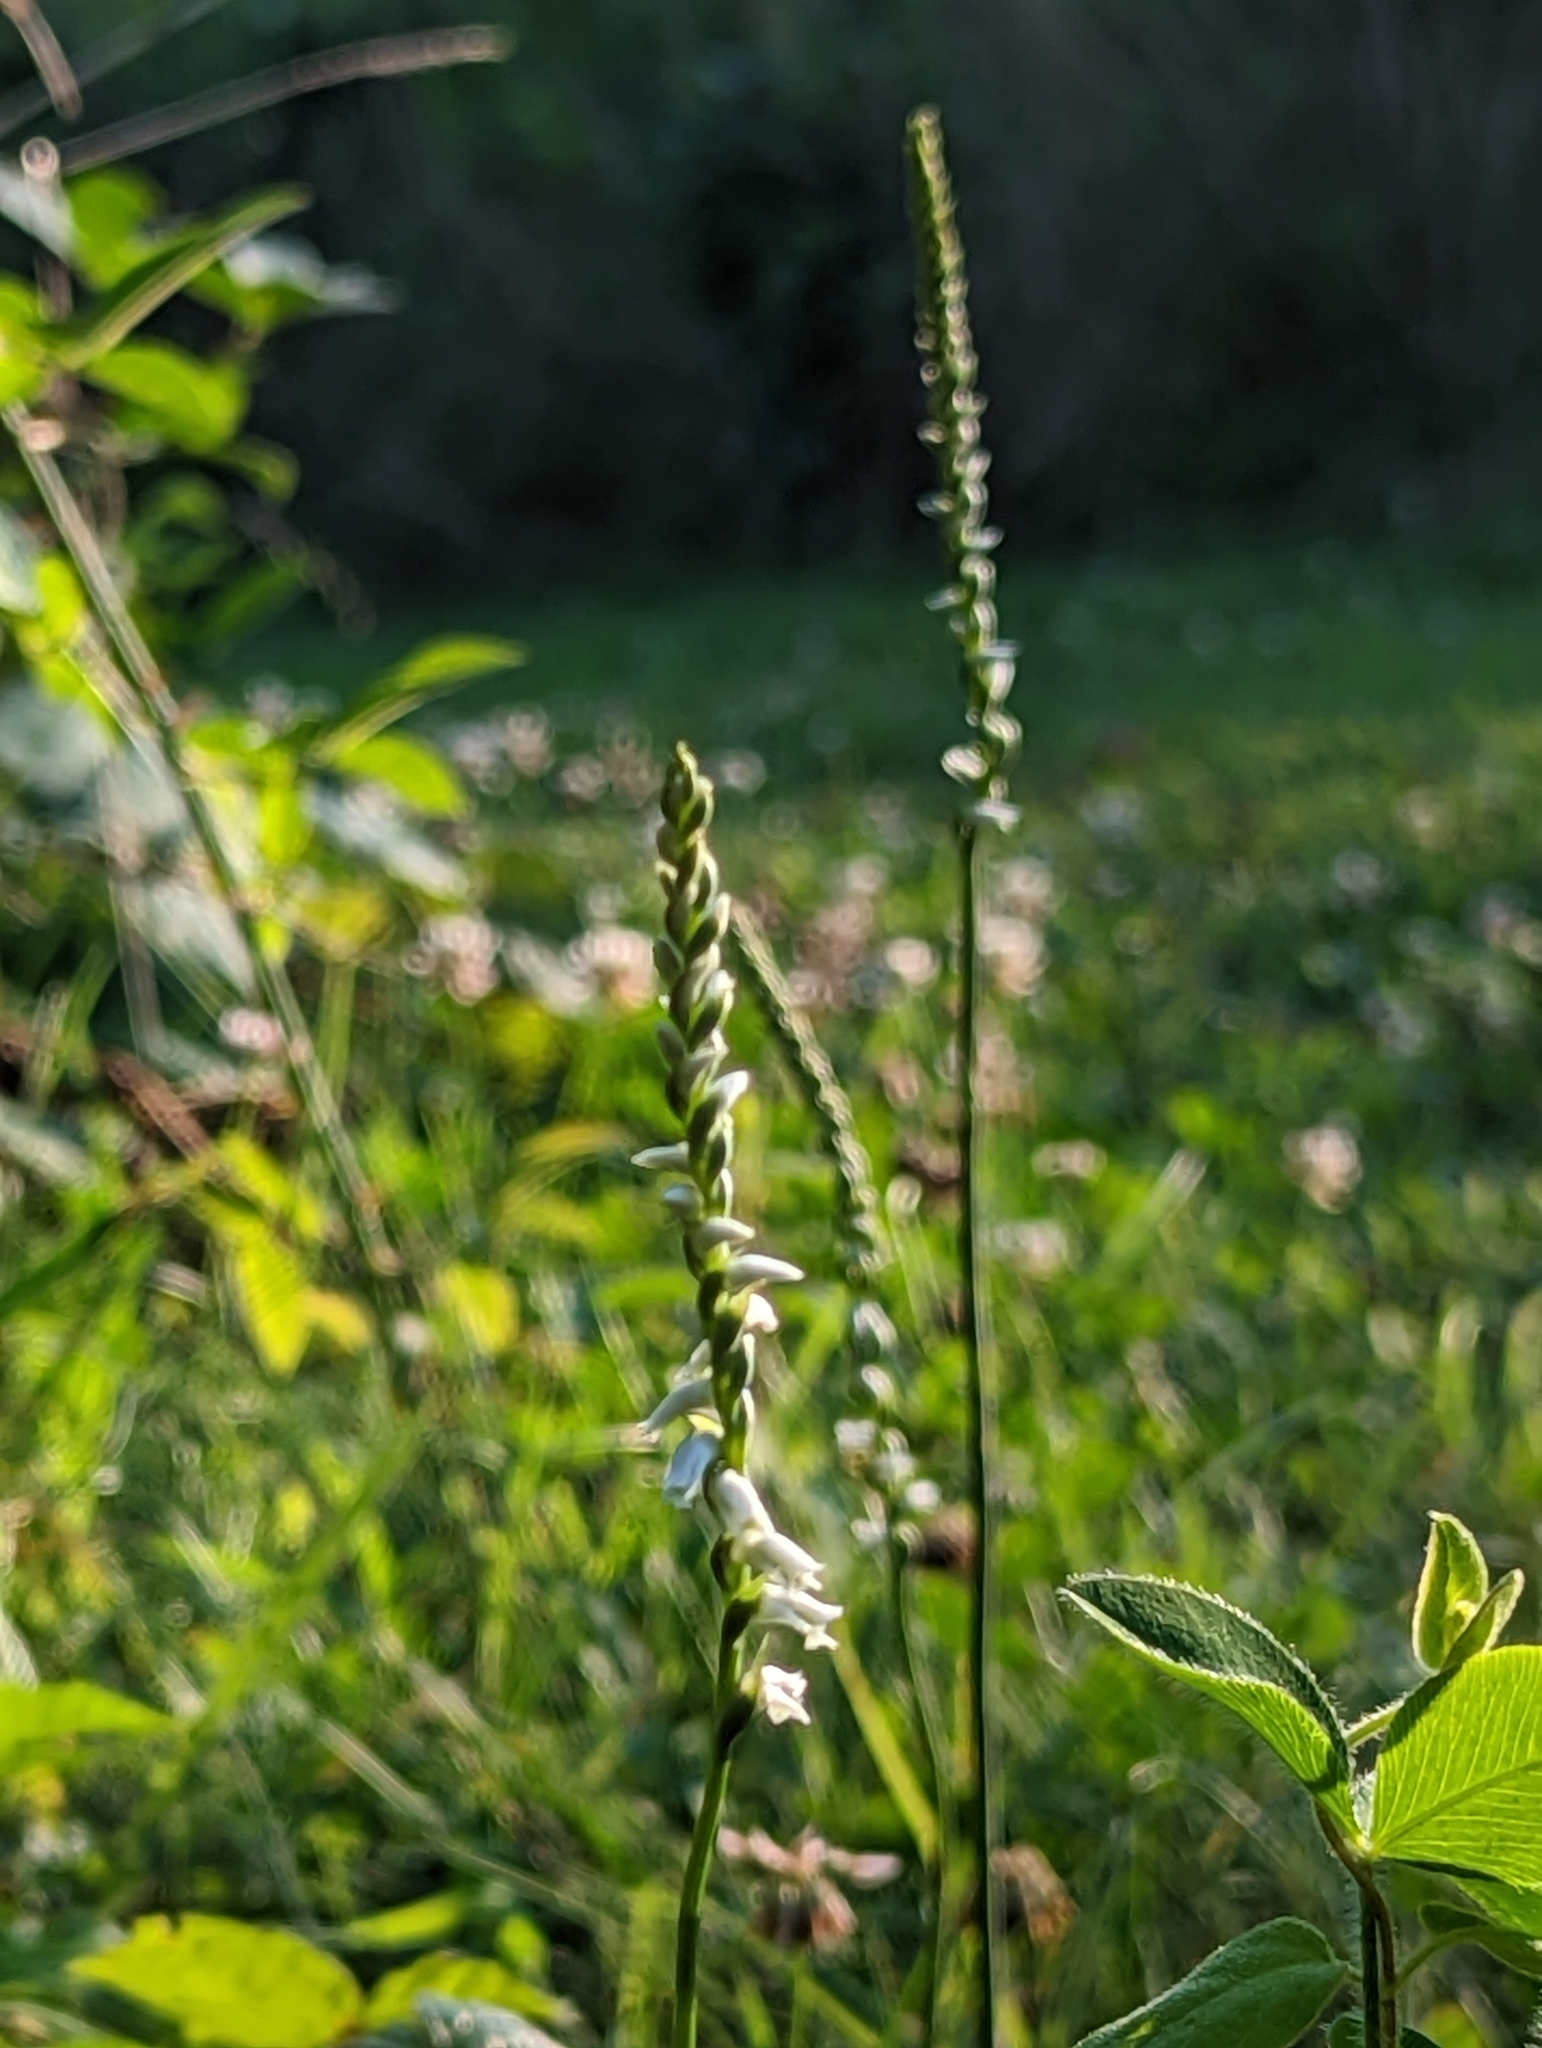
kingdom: Plantae
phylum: Tracheophyta
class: Liliopsida
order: Asparagales
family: Orchidaceae
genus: Spiranthes
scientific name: Spiranthes lacera
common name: Northern slender ladies'-tresses
